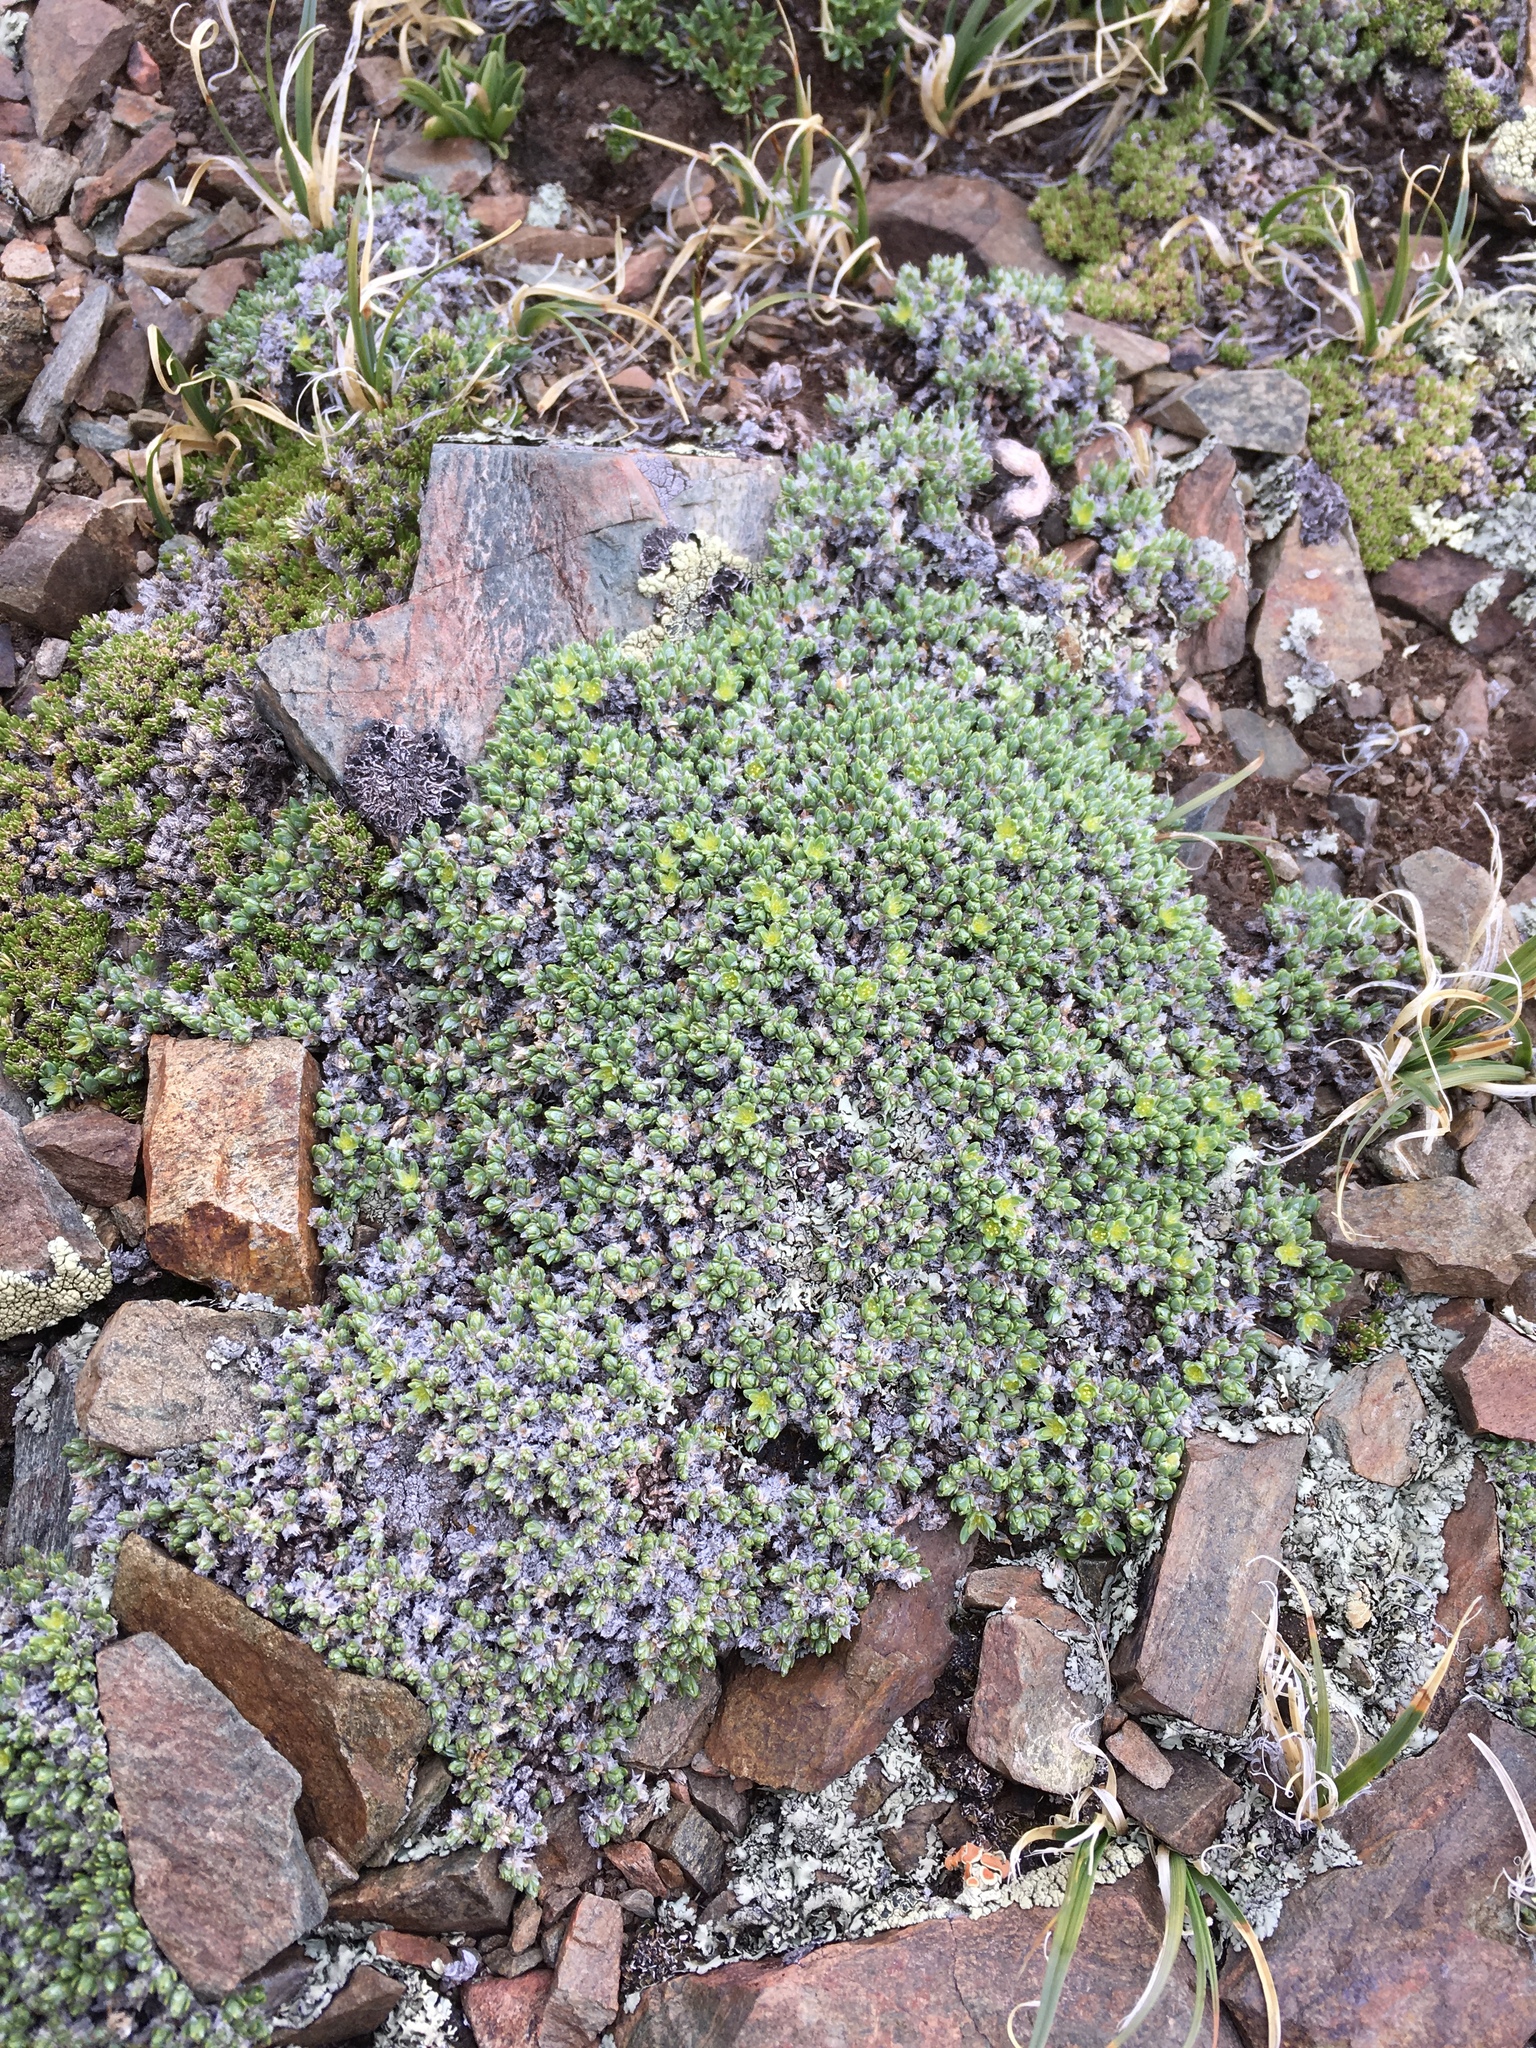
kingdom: Plantae
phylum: Tracheophyta
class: Magnoliopsida
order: Caryophyllales
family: Caryophyllaceae
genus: Paronychia
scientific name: Paronychia pulvinata
